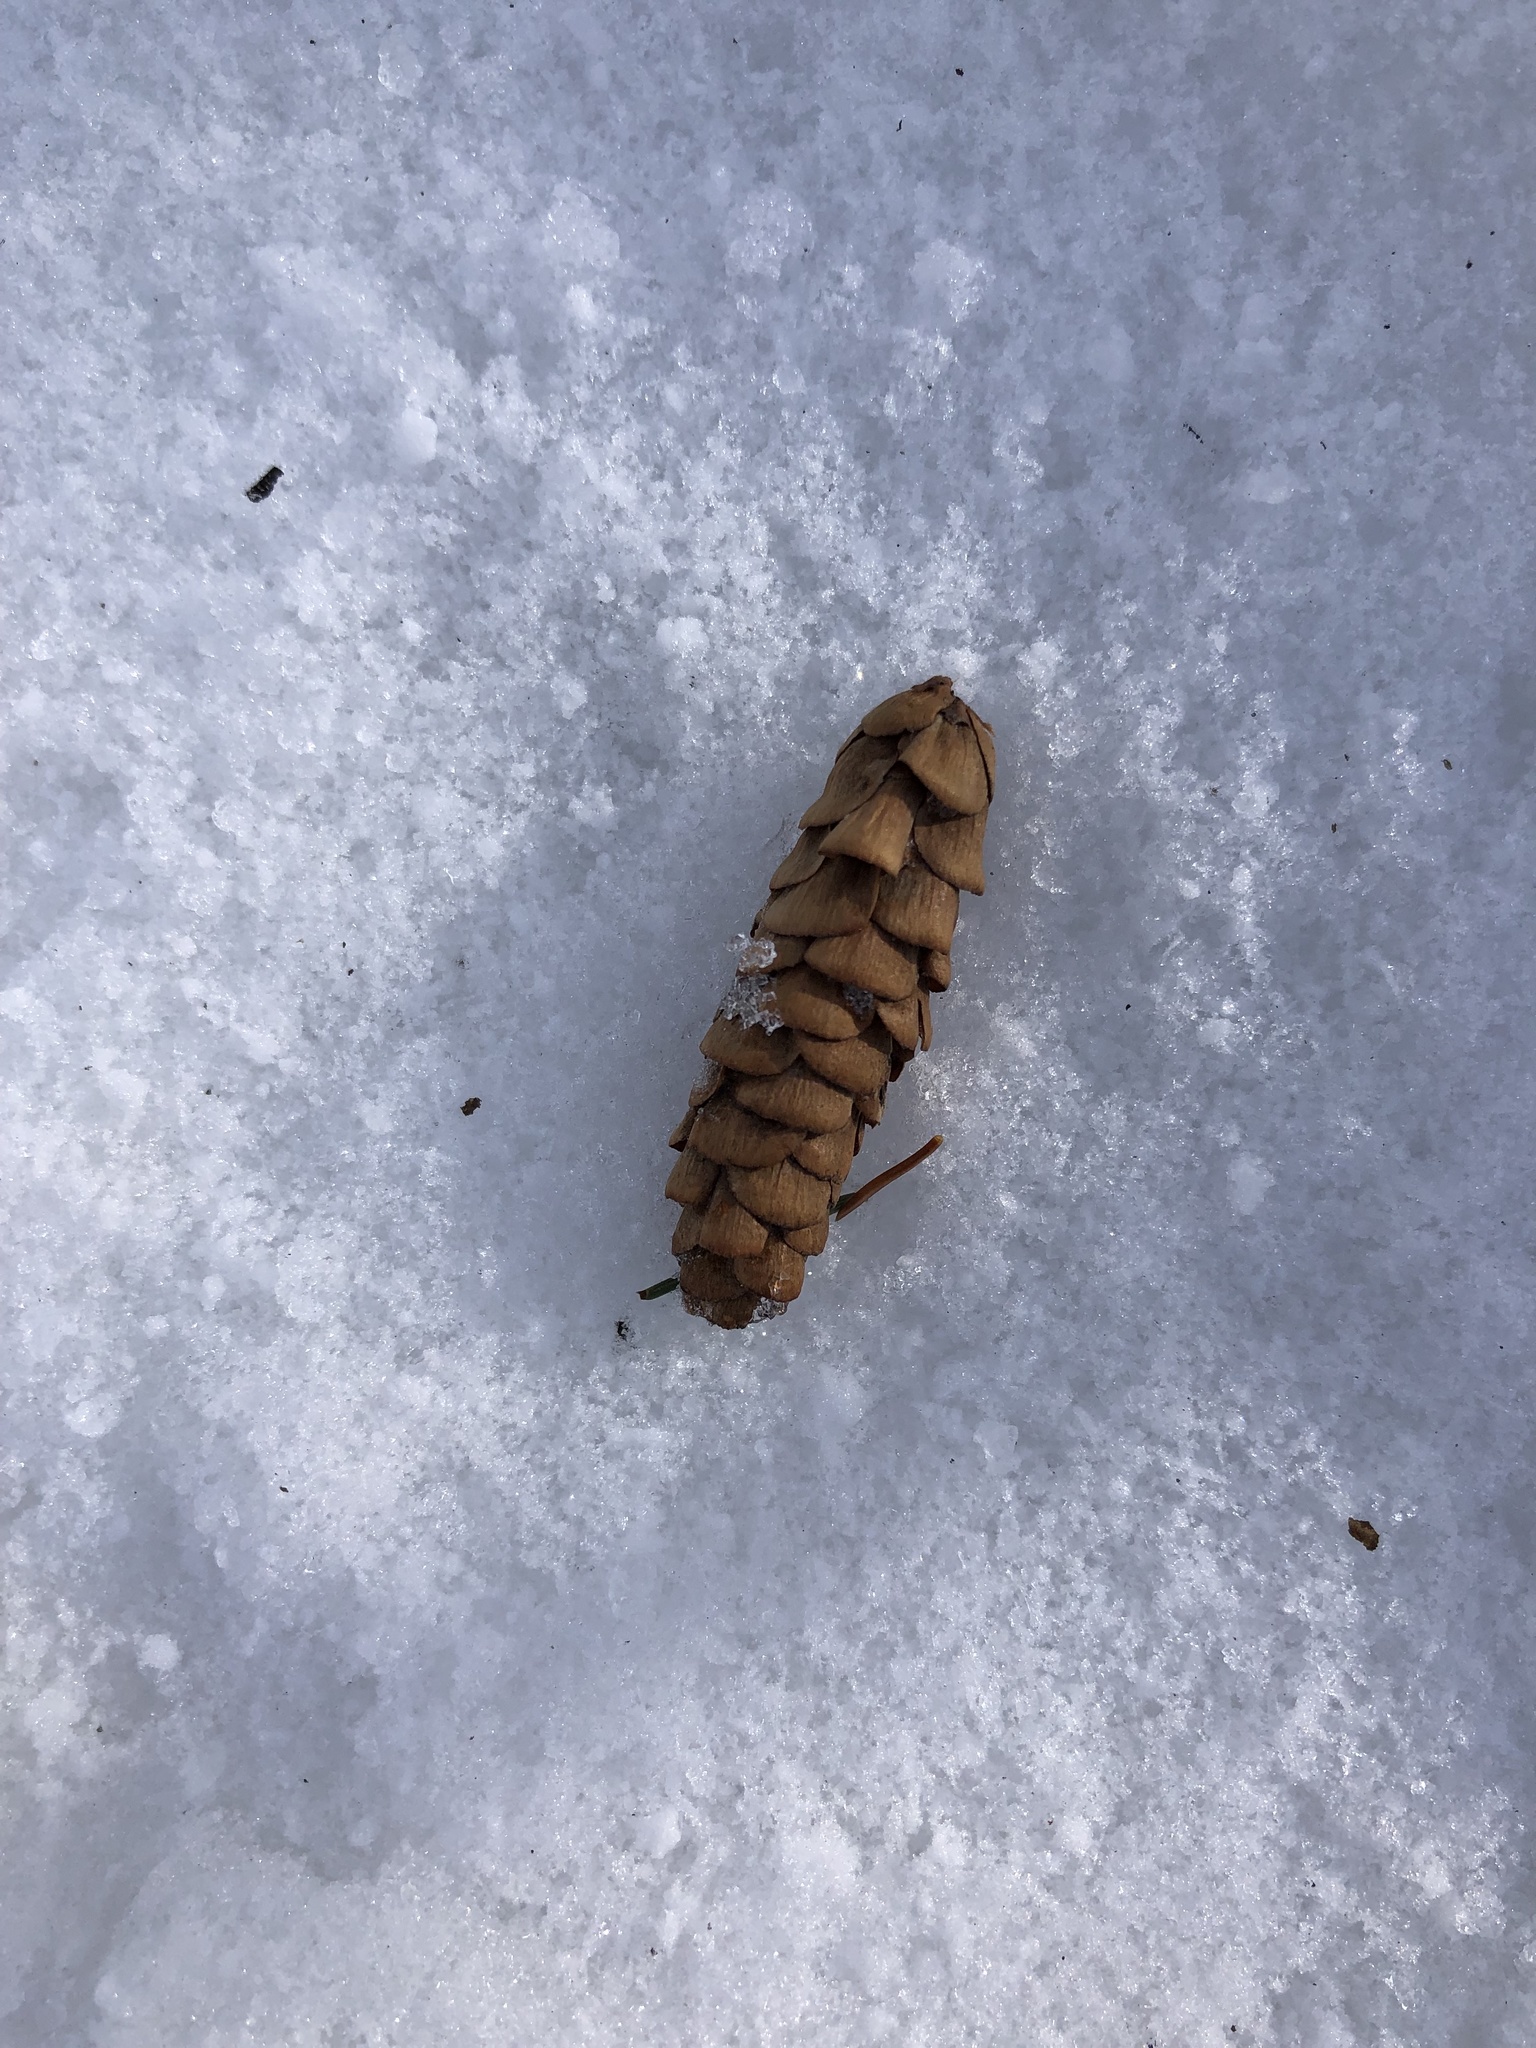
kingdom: Plantae
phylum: Tracheophyta
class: Pinopsida
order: Pinales
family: Pinaceae
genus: Picea
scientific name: Picea glauca
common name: White spruce
